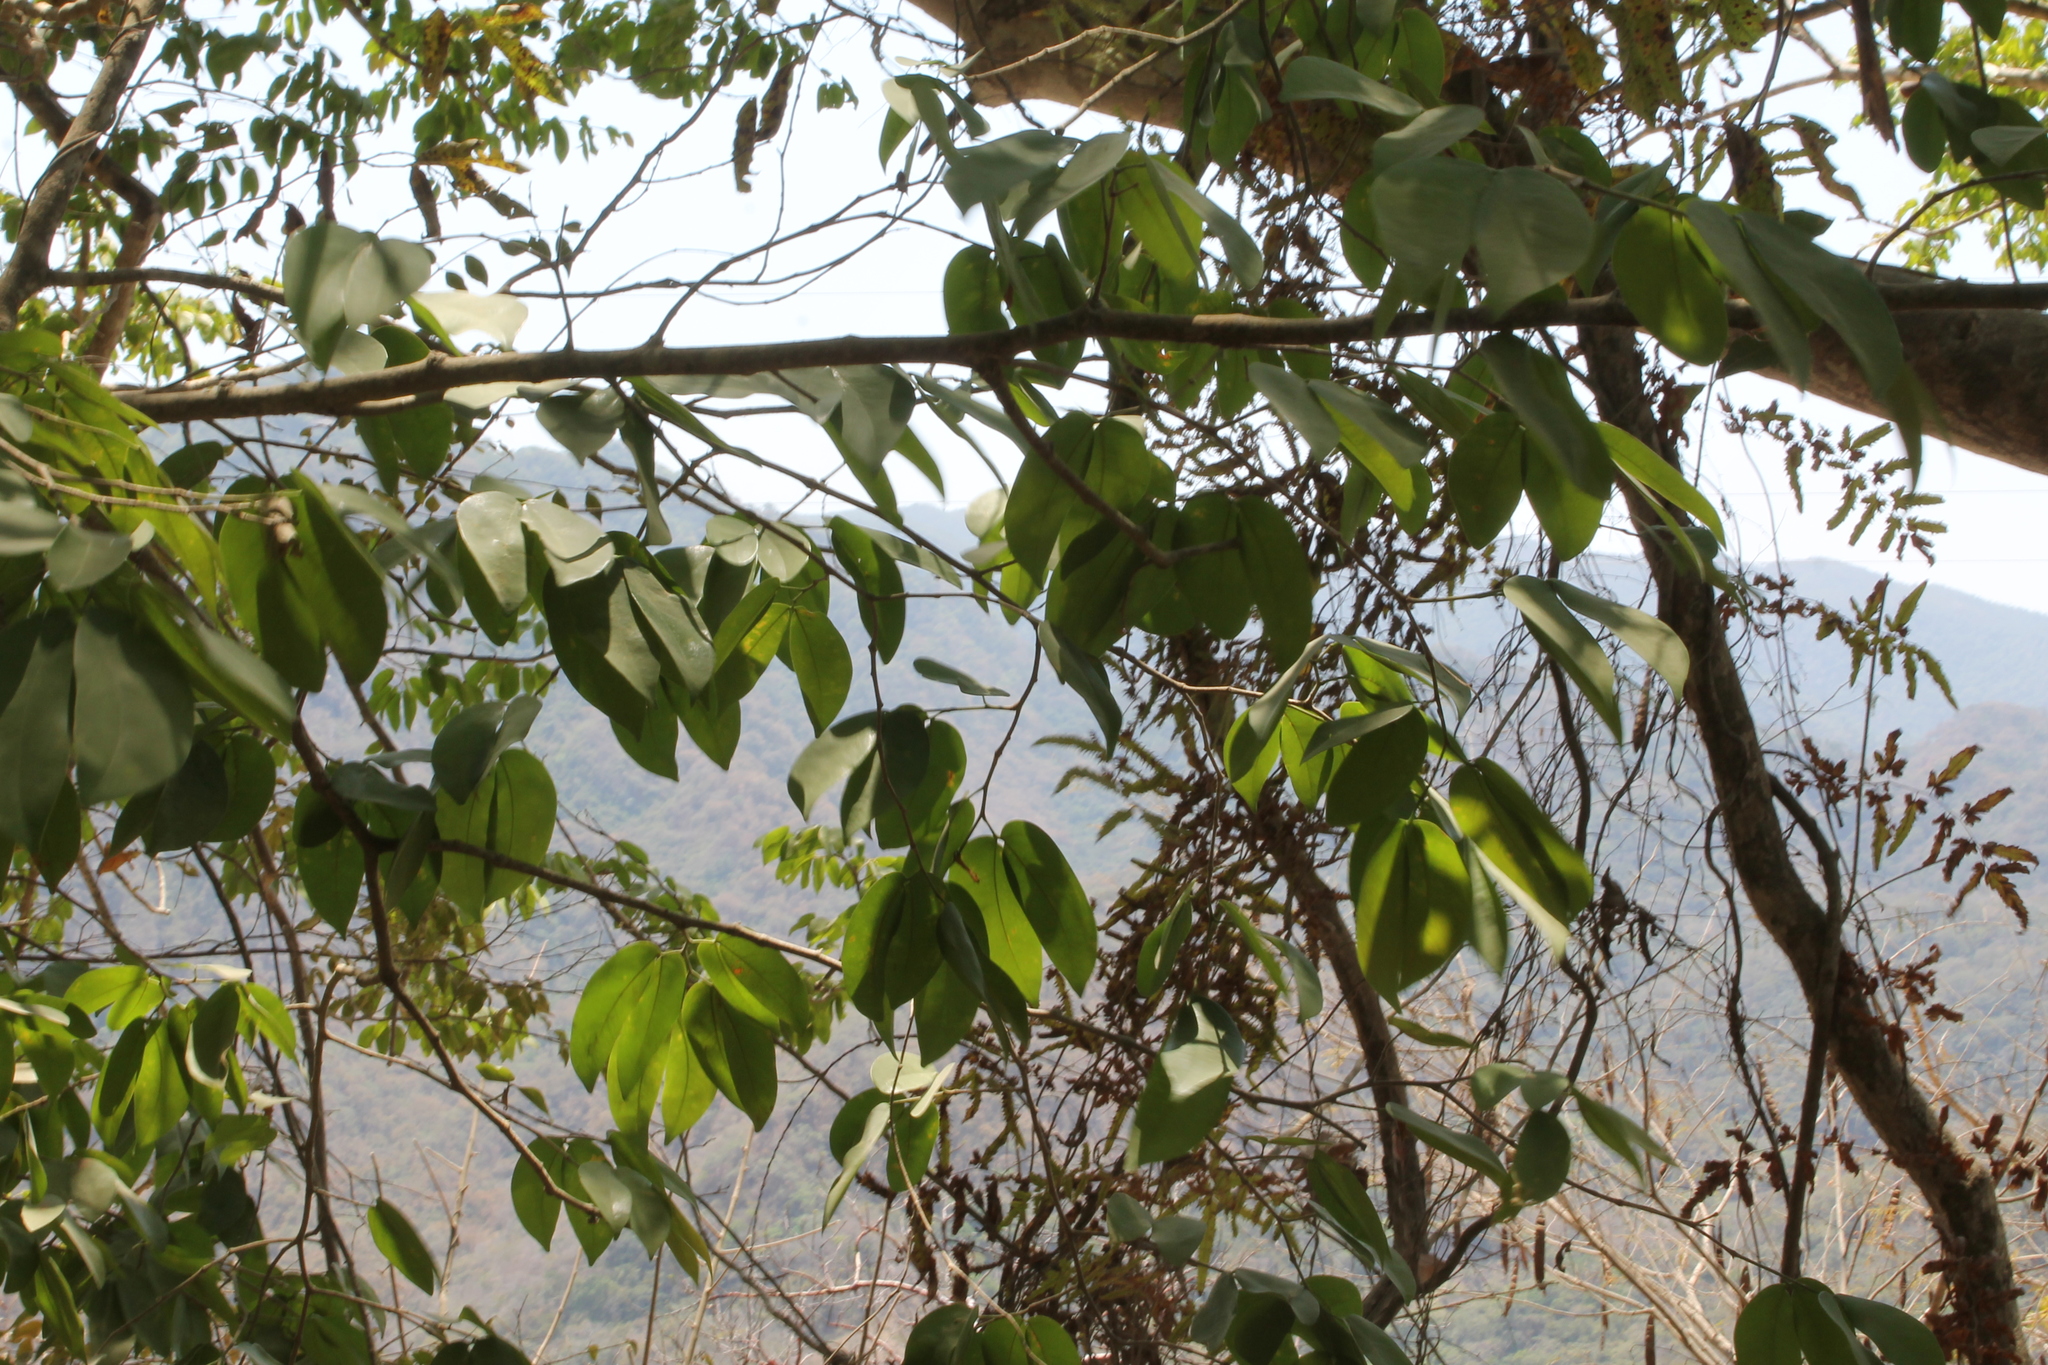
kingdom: Plantae
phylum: Tracheophyta
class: Magnoliopsida
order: Fabales
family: Fabaceae
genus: Hymenaea
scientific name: Hymenaea courbaril
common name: Brazilian copal
